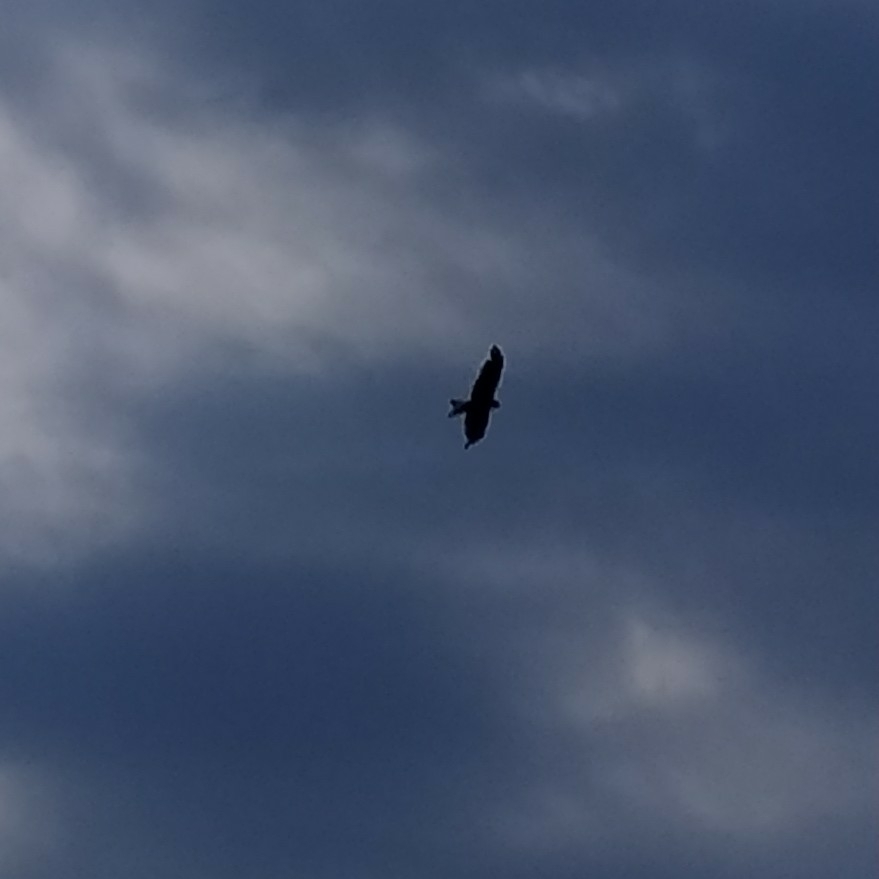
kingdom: Animalia
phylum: Chordata
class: Aves
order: Accipitriformes
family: Accipitridae
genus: Milvus
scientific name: Milvus migrans
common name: Black kite
